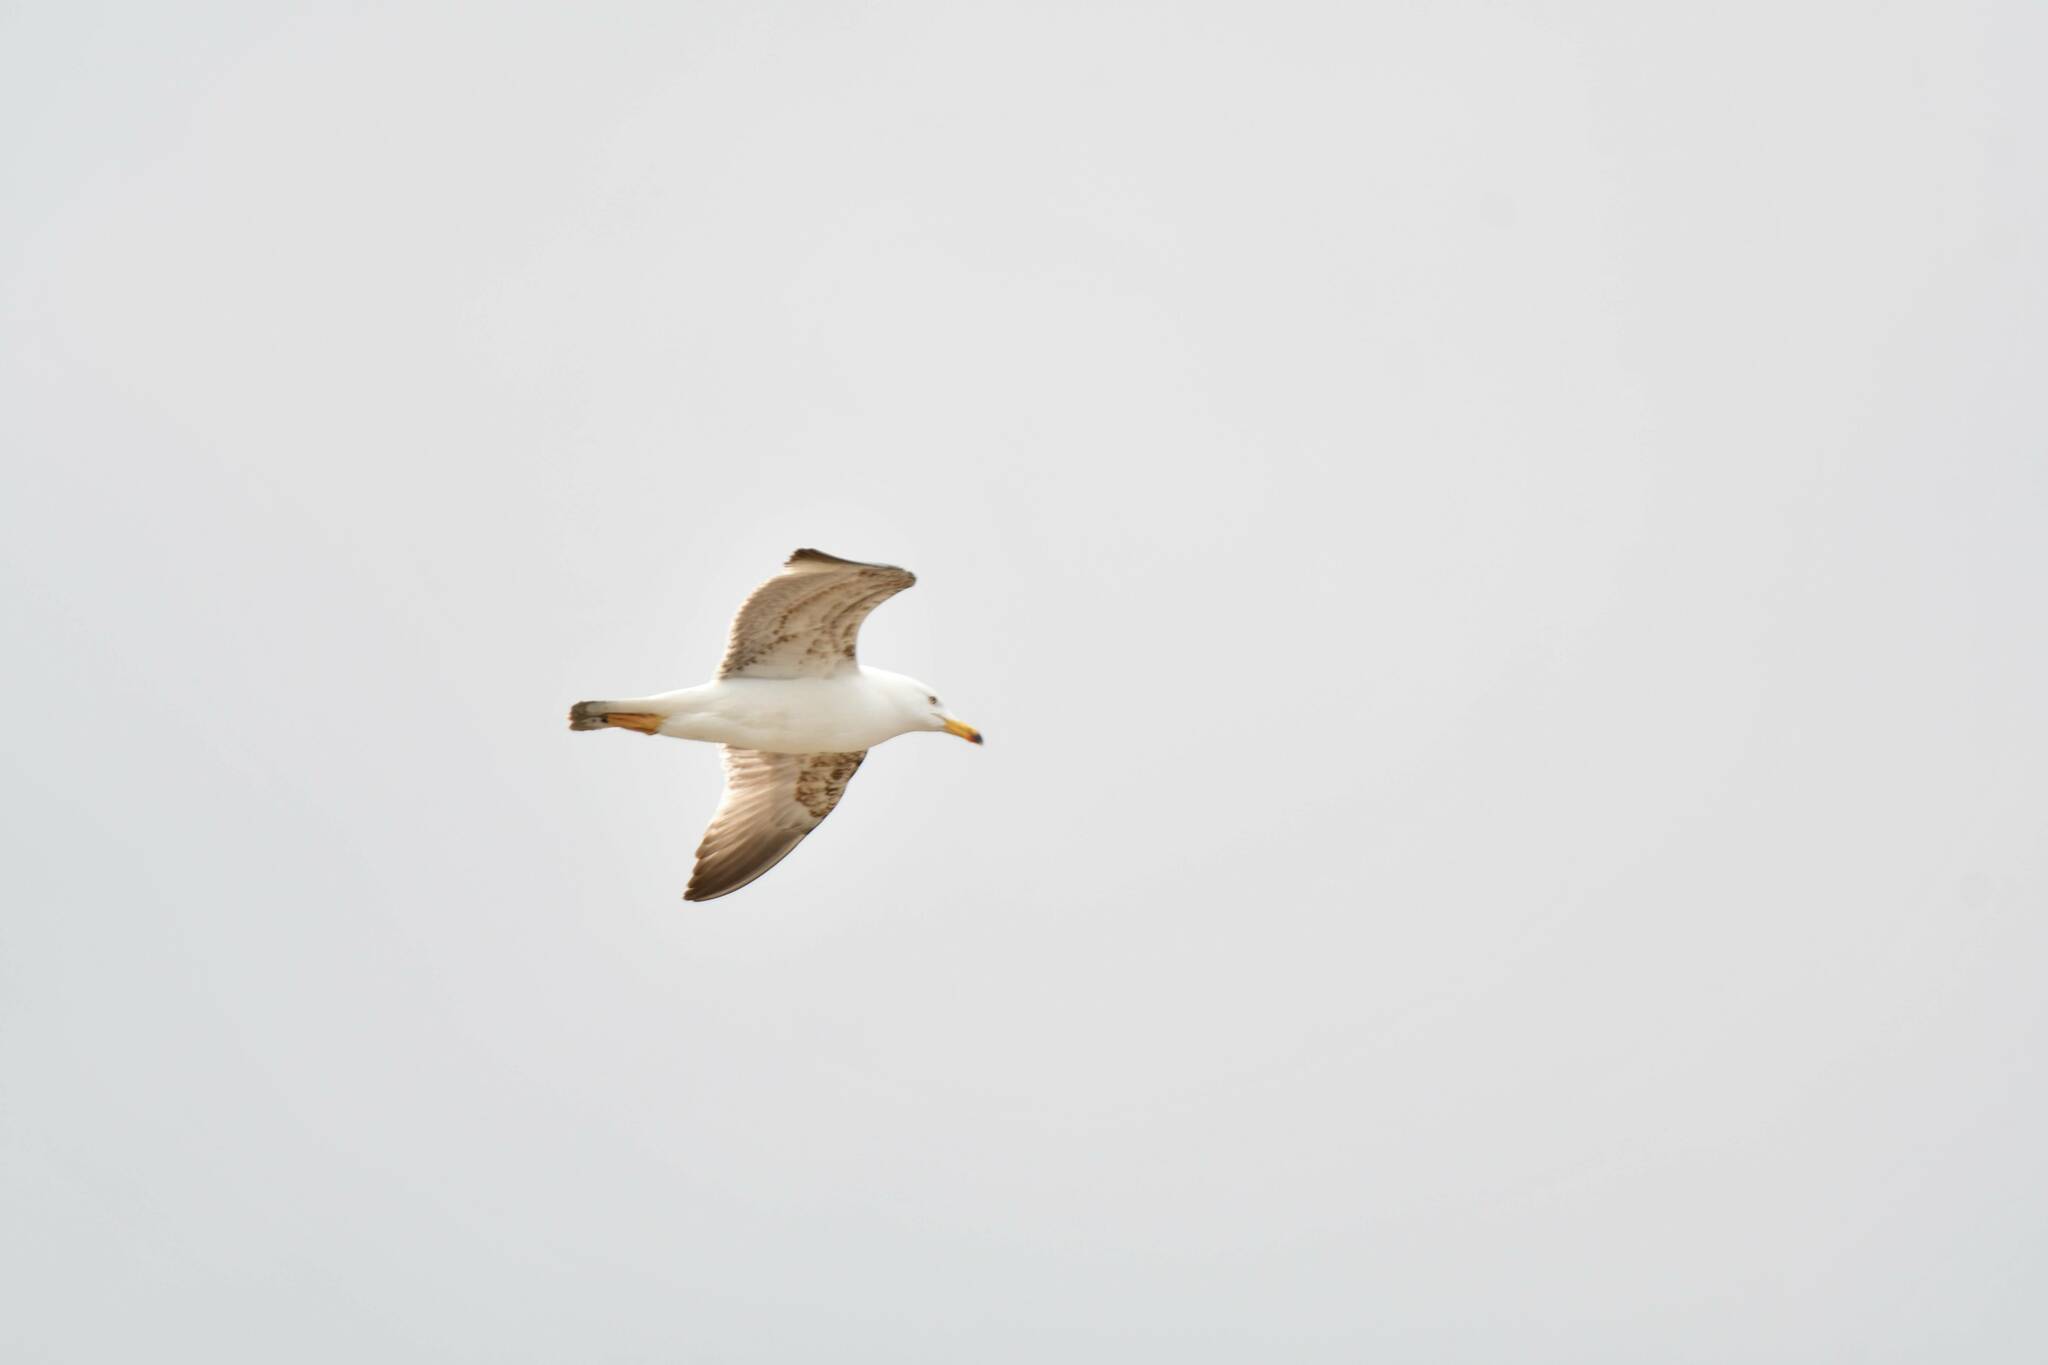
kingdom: Animalia
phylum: Chordata
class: Aves
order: Charadriiformes
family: Laridae
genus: Larus
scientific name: Larus fuscus
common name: Lesser black-backed gull
